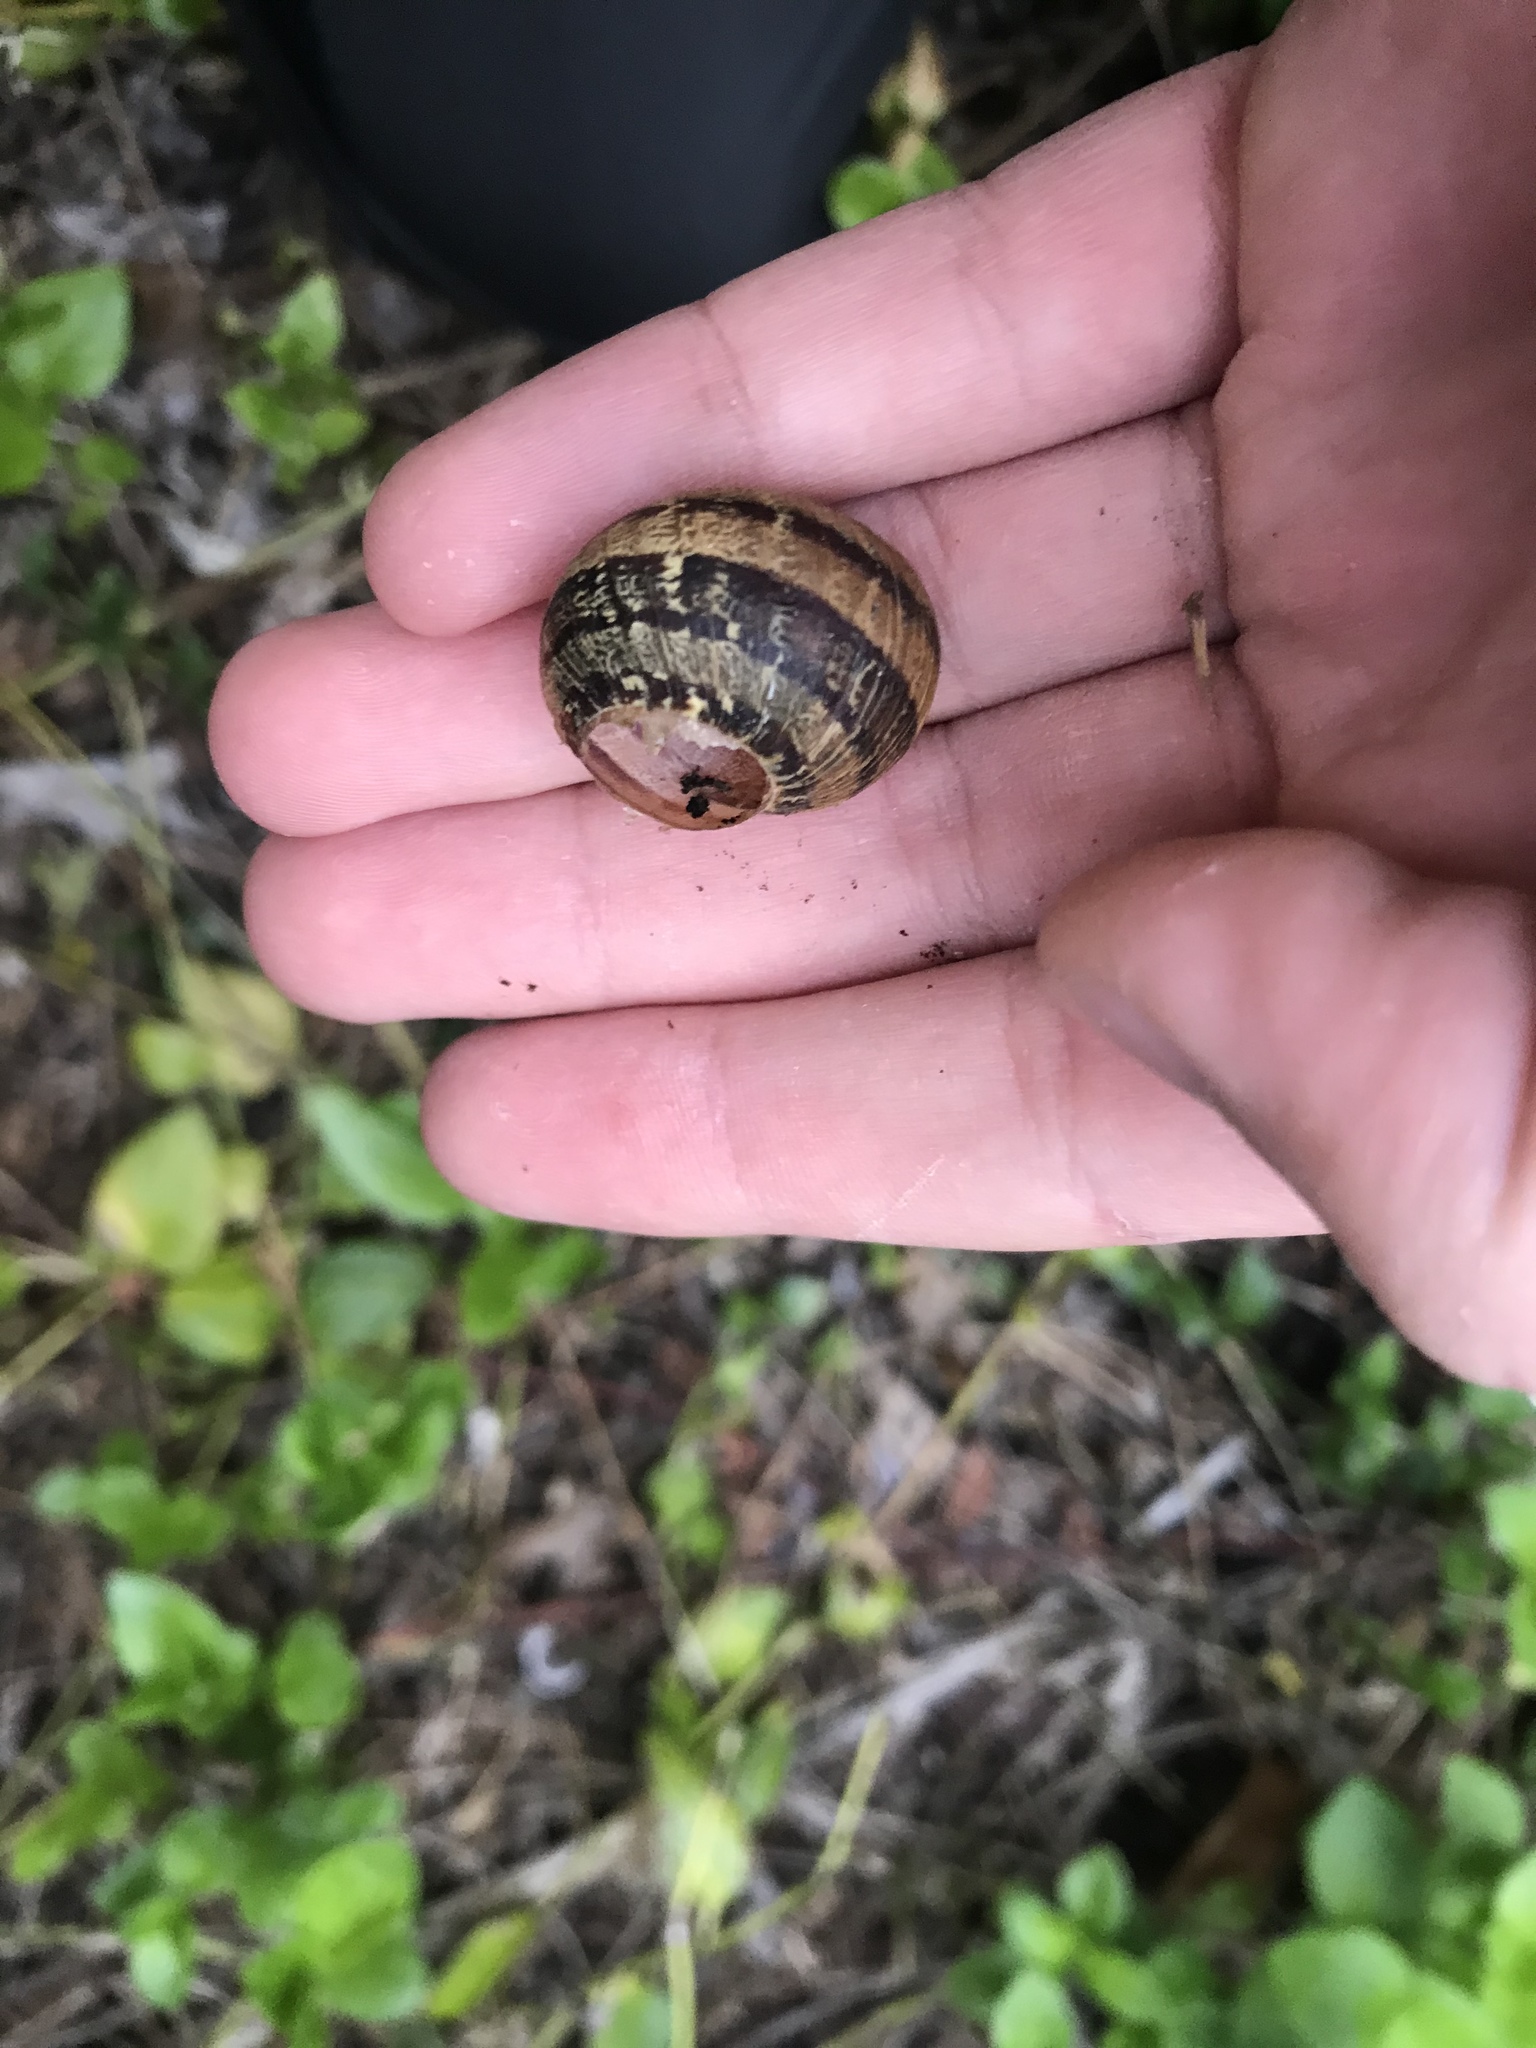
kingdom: Animalia
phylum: Mollusca
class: Gastropoda
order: Stylommatophora
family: Helicidae
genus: Cornu
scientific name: Cornu aspersum
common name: Brown garden snail
